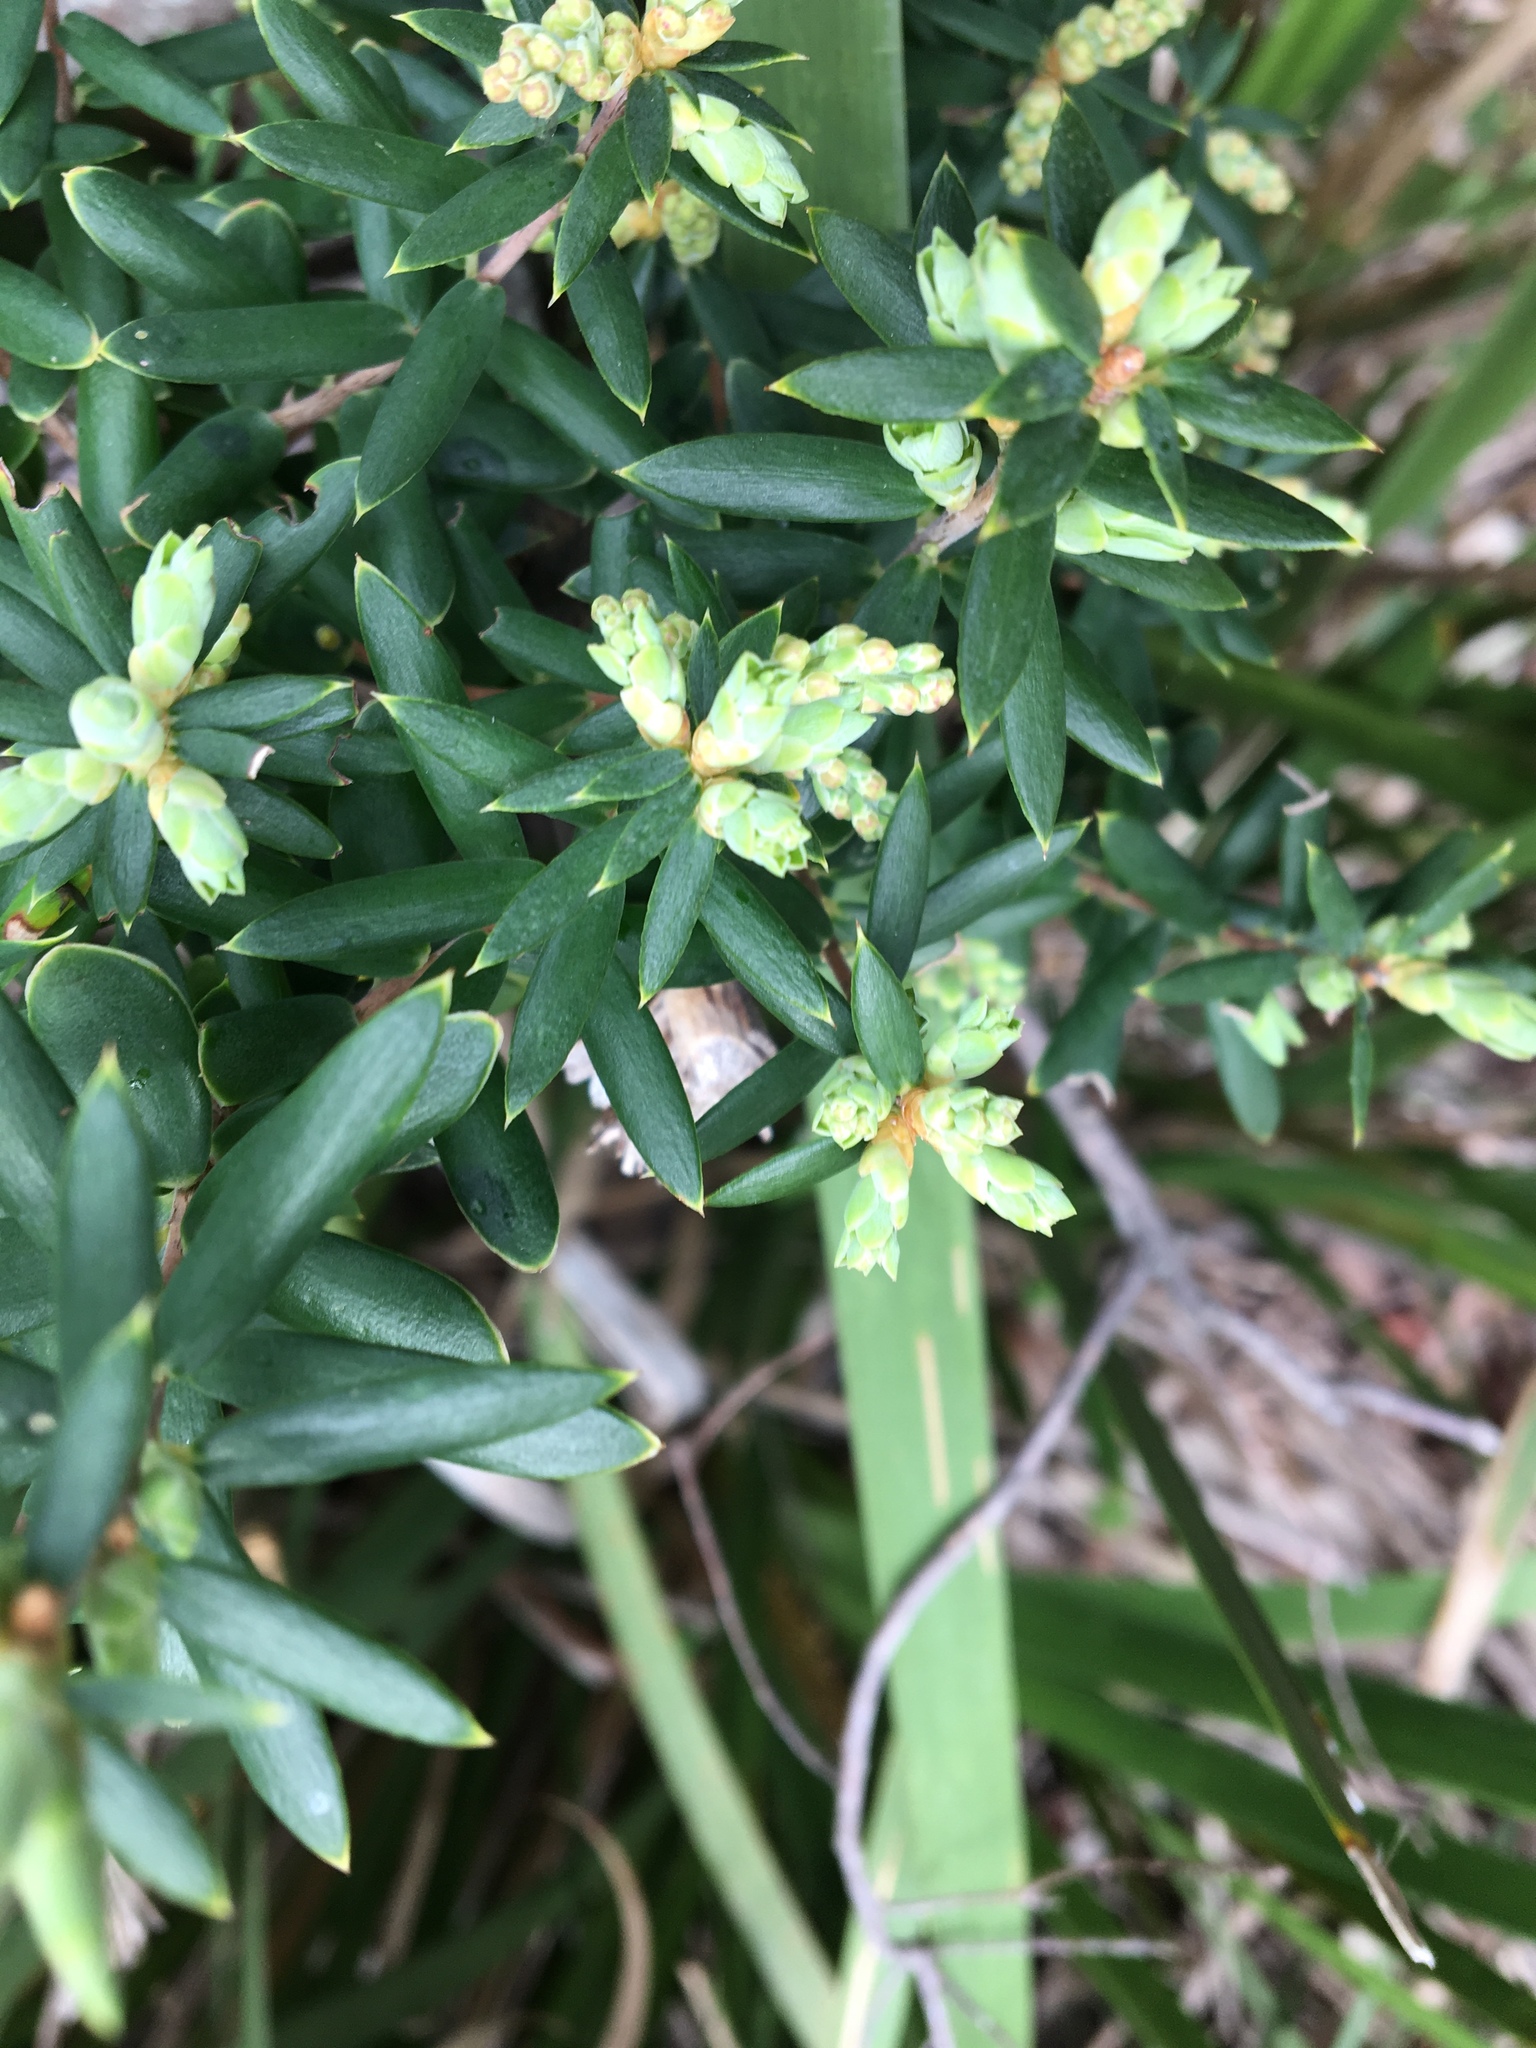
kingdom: Plantae
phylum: Tracheophyta
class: Magnoliopsida
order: Ericales
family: Ericaceae
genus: Monotoca
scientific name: Monotoca elliptica
